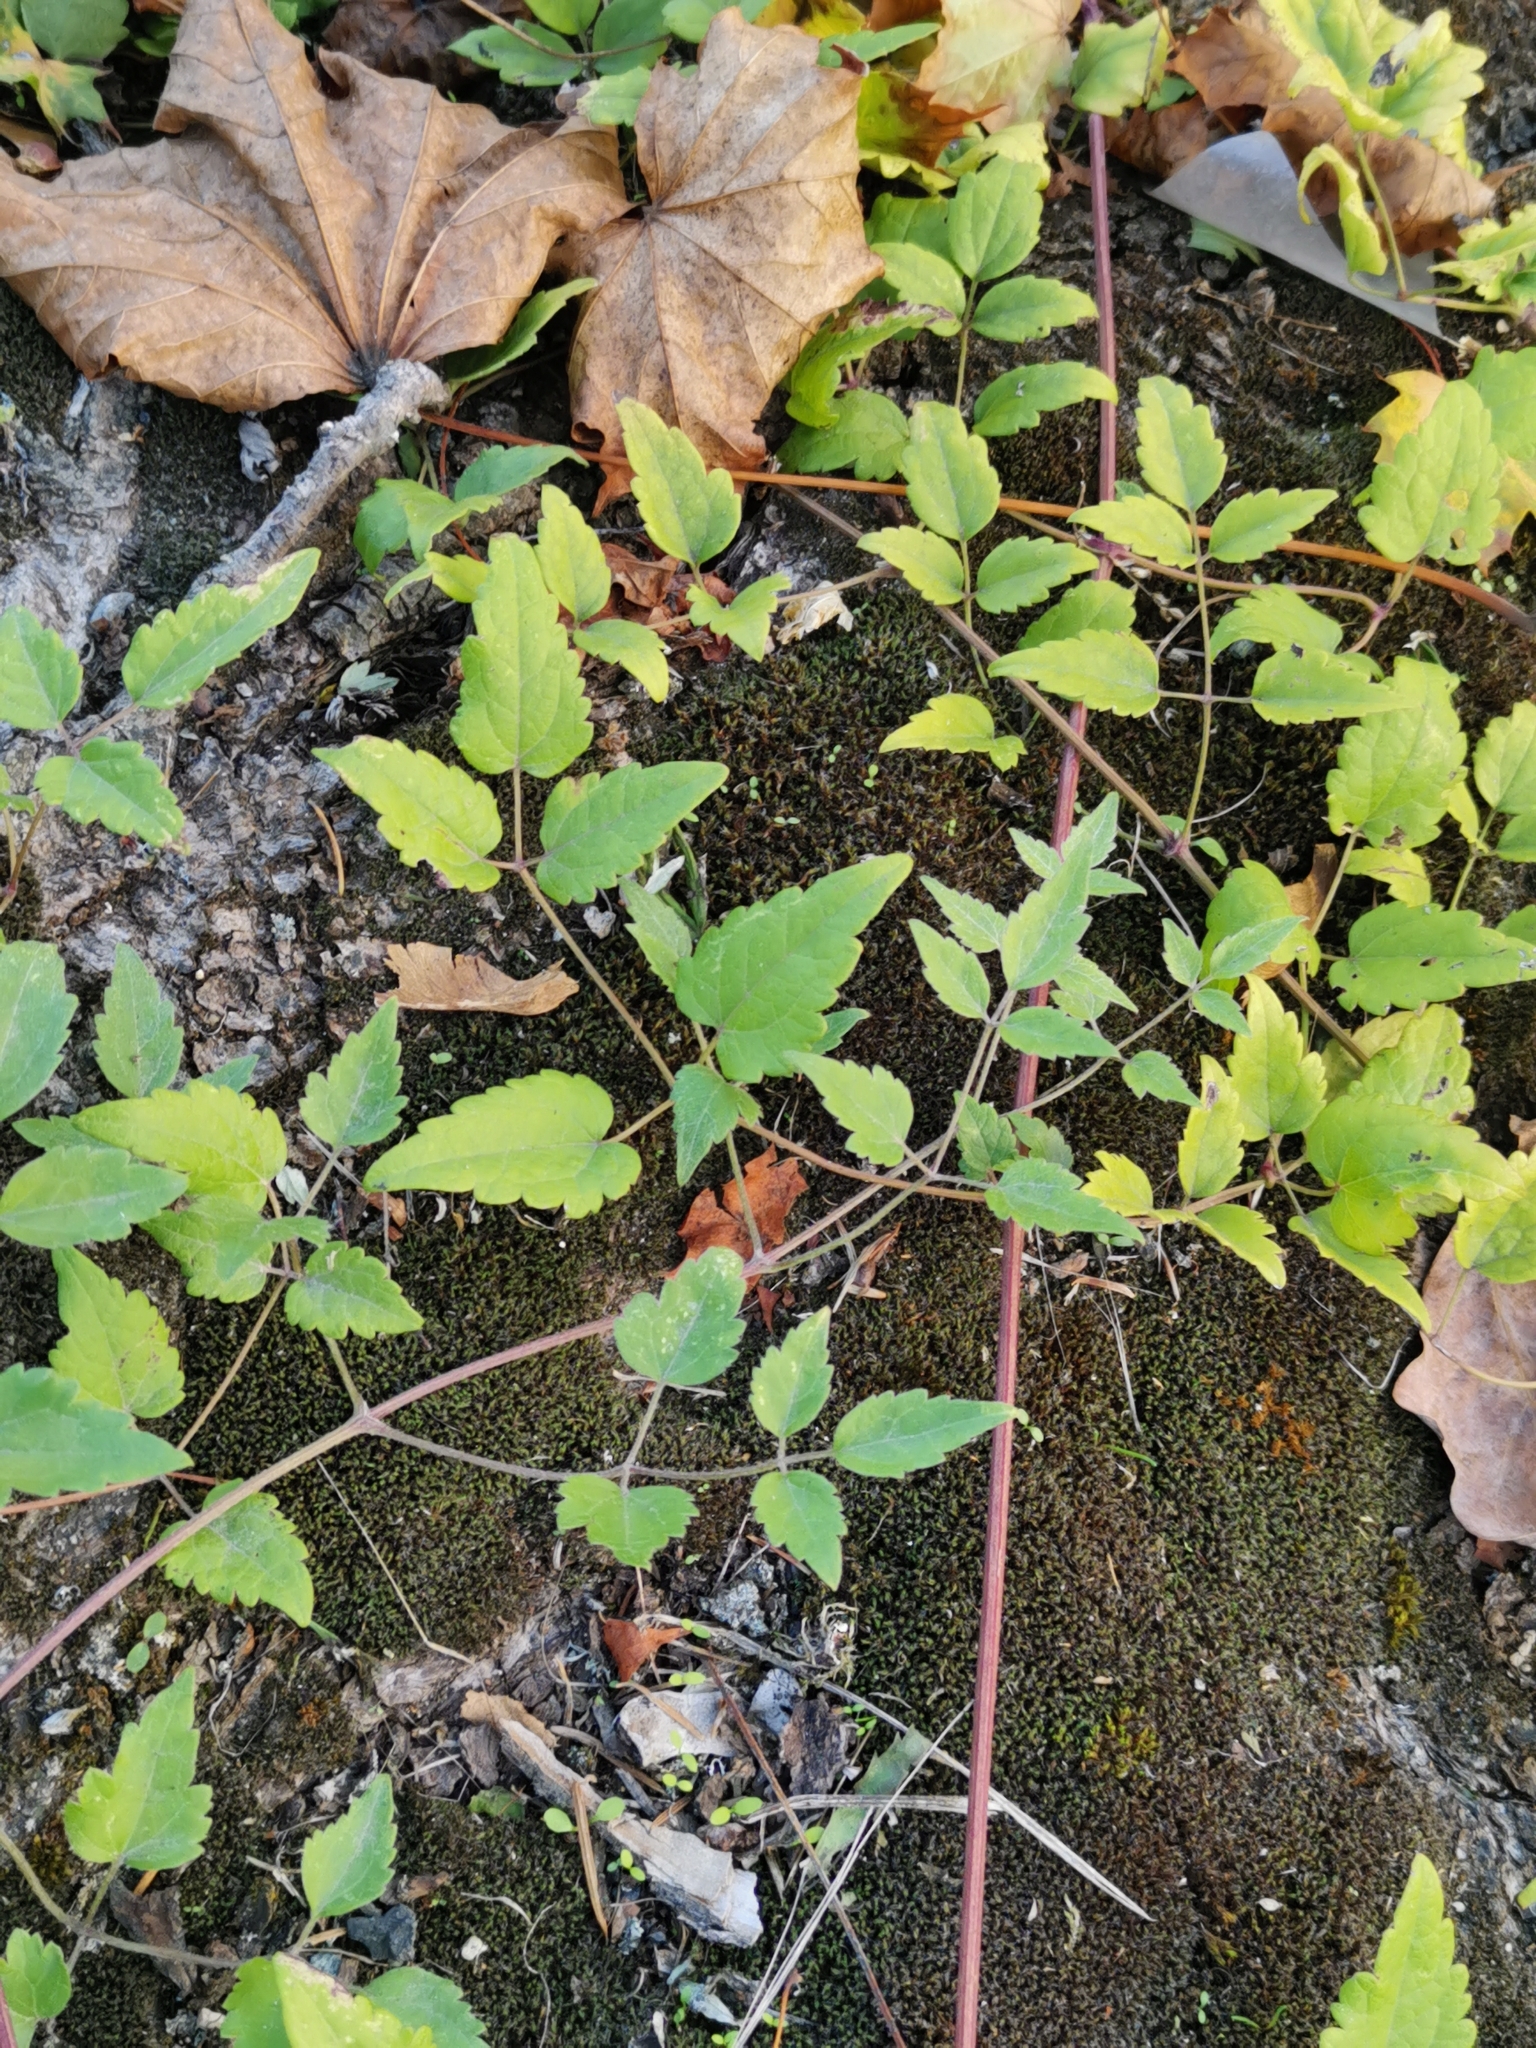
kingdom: Plantae
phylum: Tracheophyta
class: Magnoliopsida
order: Ranunculales
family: Ranunculaceae
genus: Clematis
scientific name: Clematis vitalba
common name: Evergreen clematis
